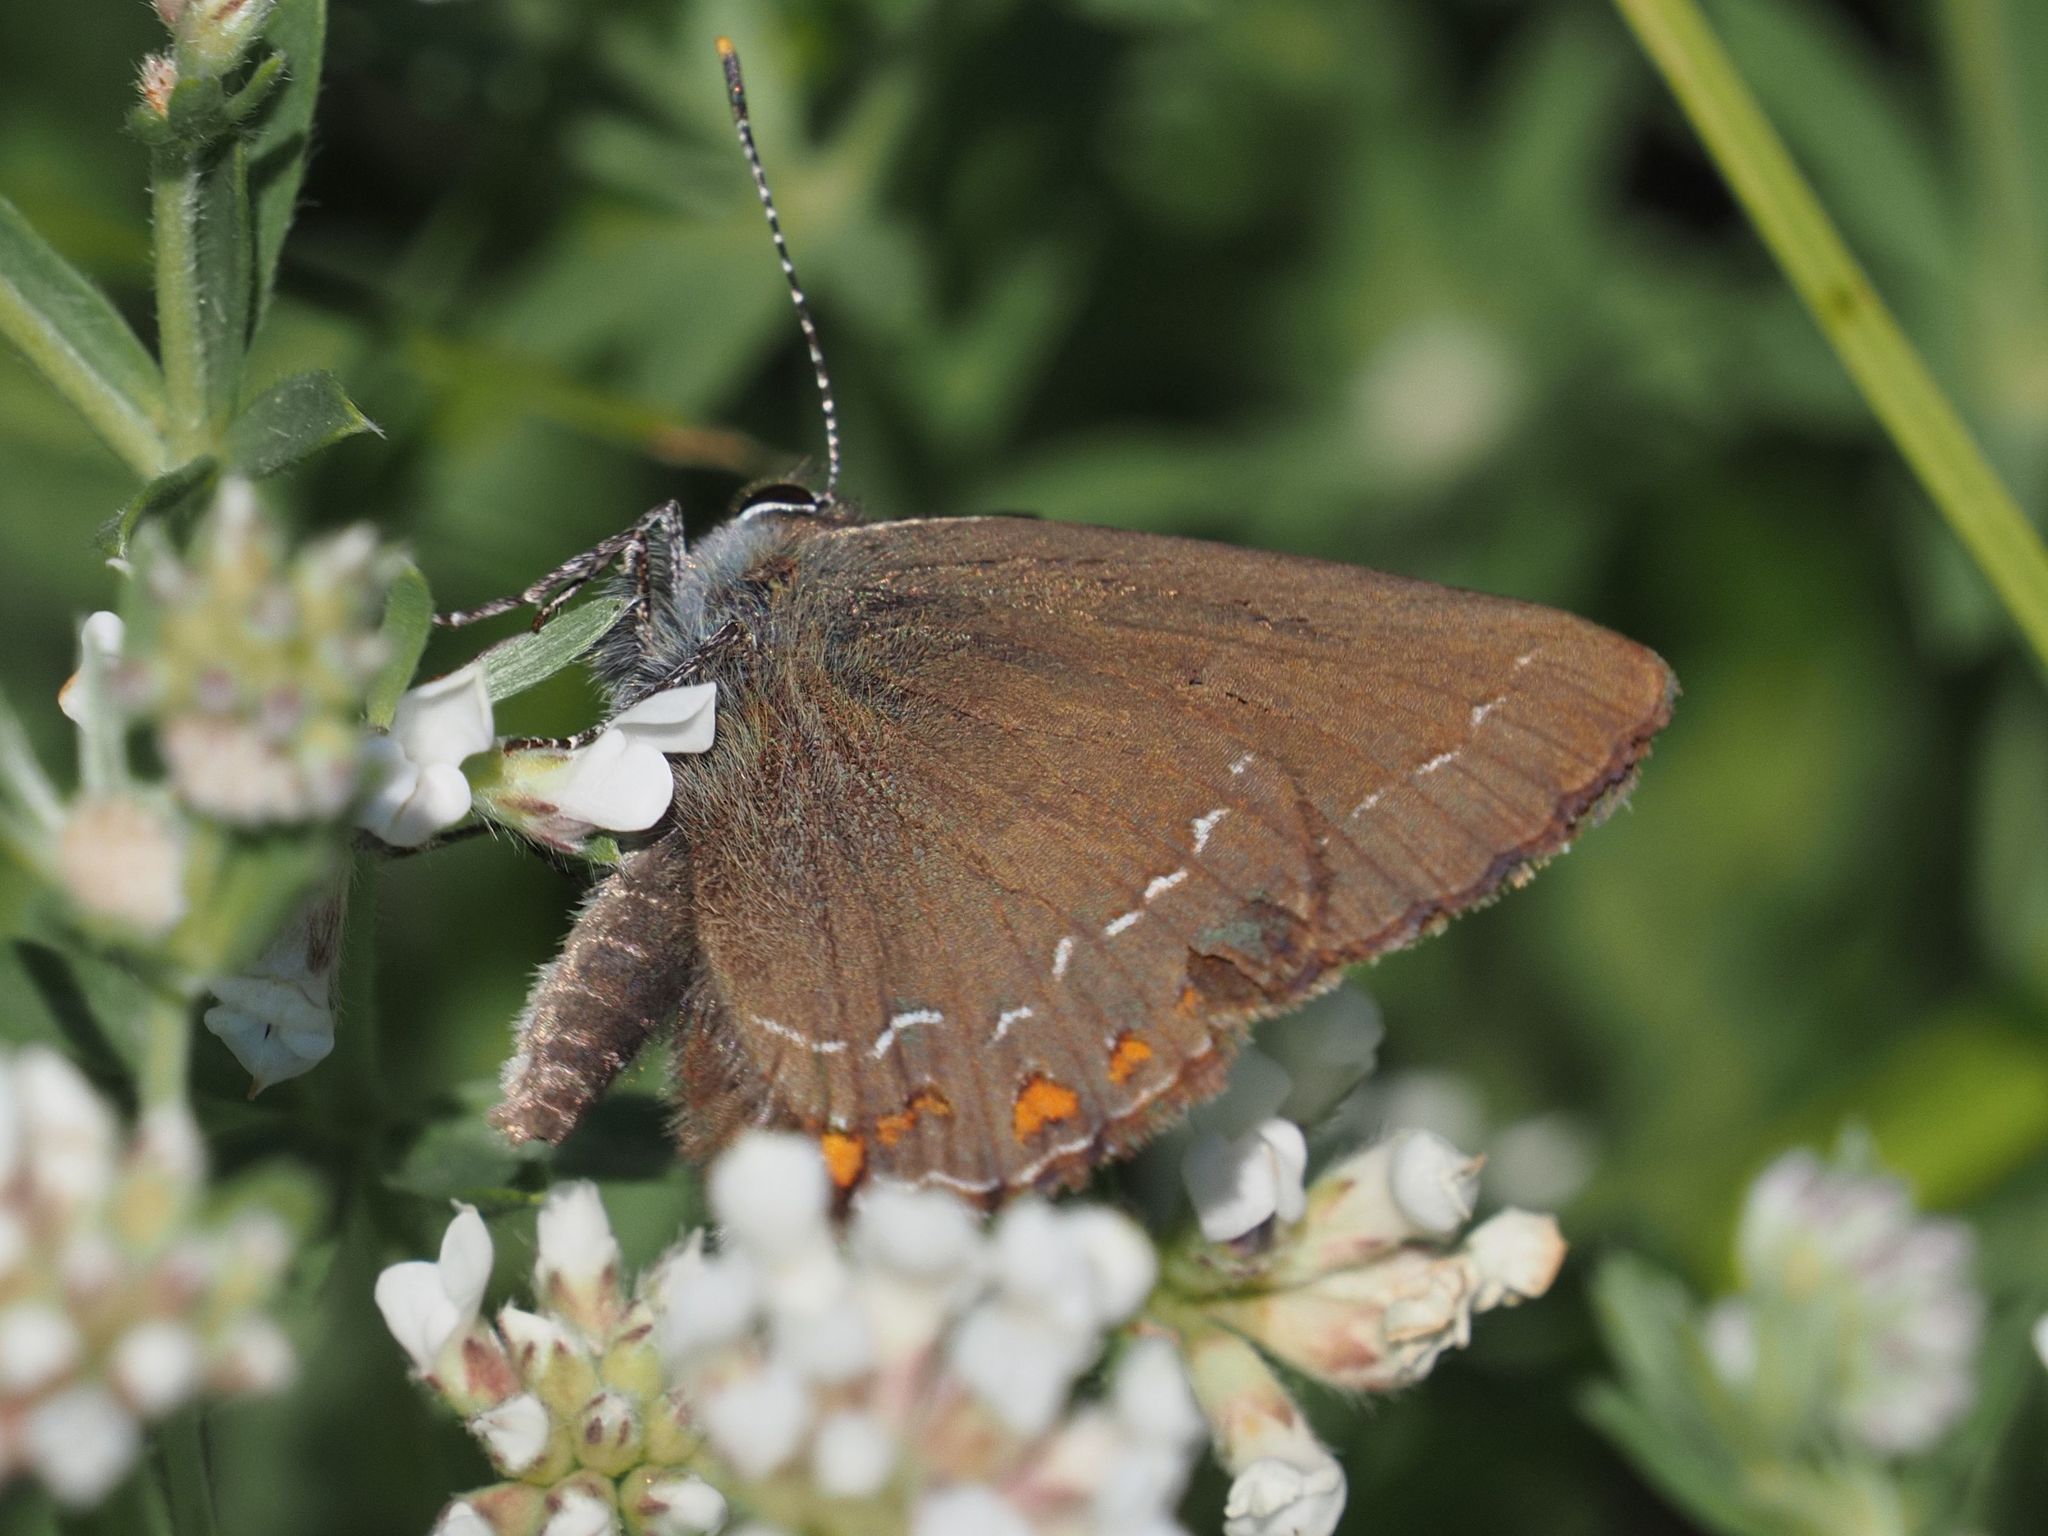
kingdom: Animalia
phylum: Arthropoda
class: Insecta
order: Lepidoptera
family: Lycaenidae
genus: Nordmannia
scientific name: Nordmannia ilicis
